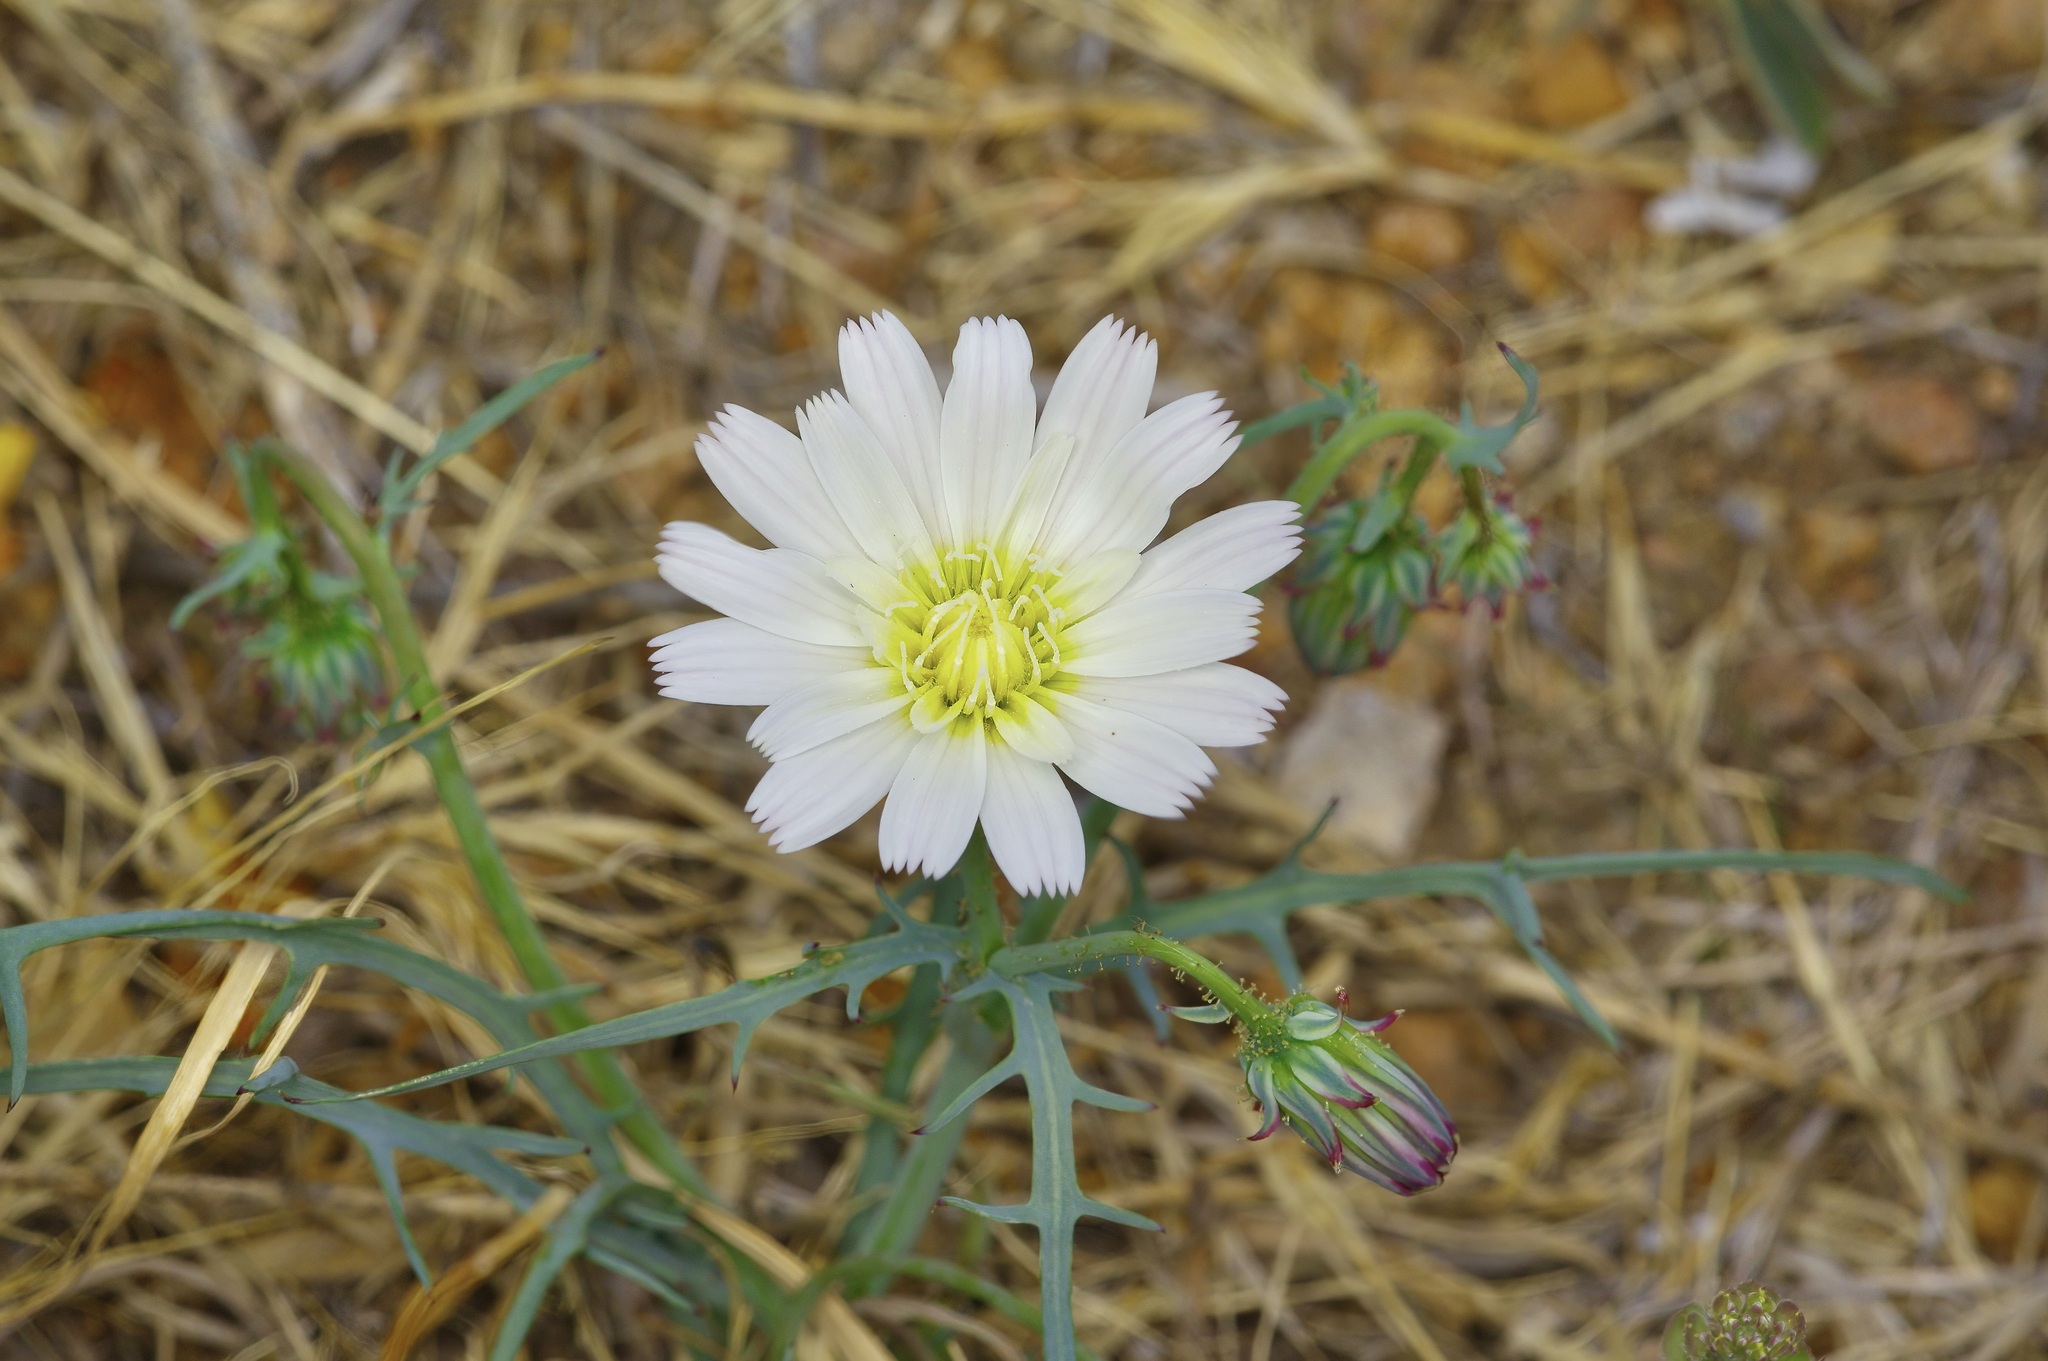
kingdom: Plantae
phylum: Tracheophyta
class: Magnoliopsida
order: Asterales
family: Asteraceae
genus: Calycoseris
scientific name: Calycoseris wrightii
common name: White tackstem
